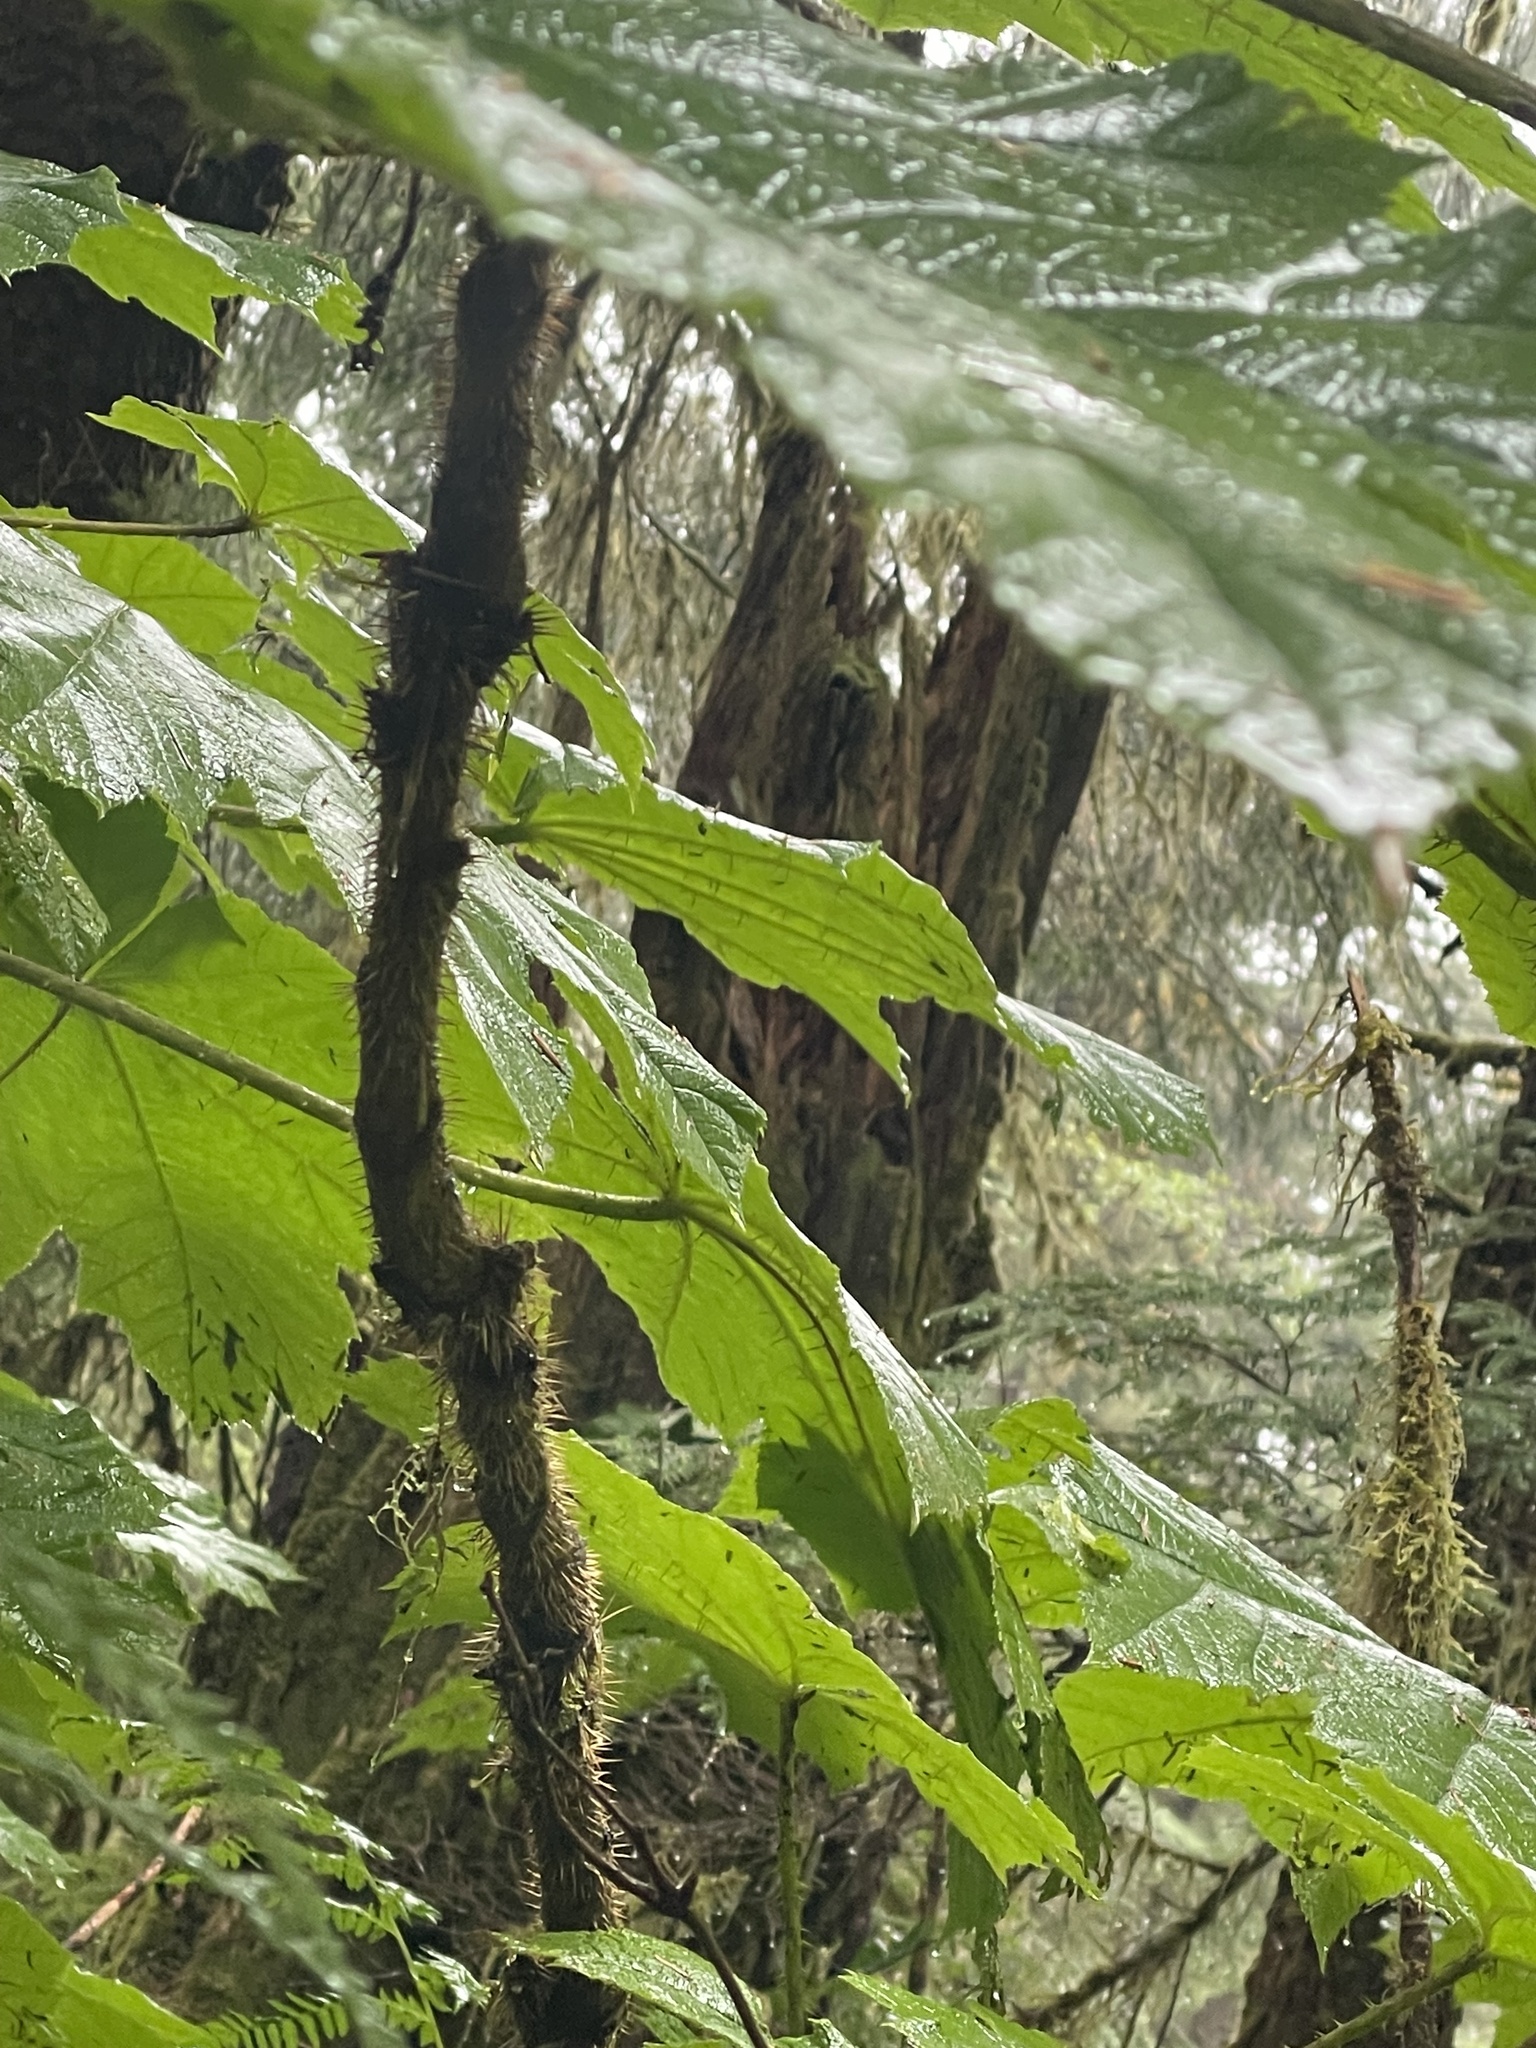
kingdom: Plantae
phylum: Tracheophyta
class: Magnoliopsida
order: Apiales
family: Araliaceae
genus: Oplopanax
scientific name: Oplopanax horridus
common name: Devil's walking-stick
